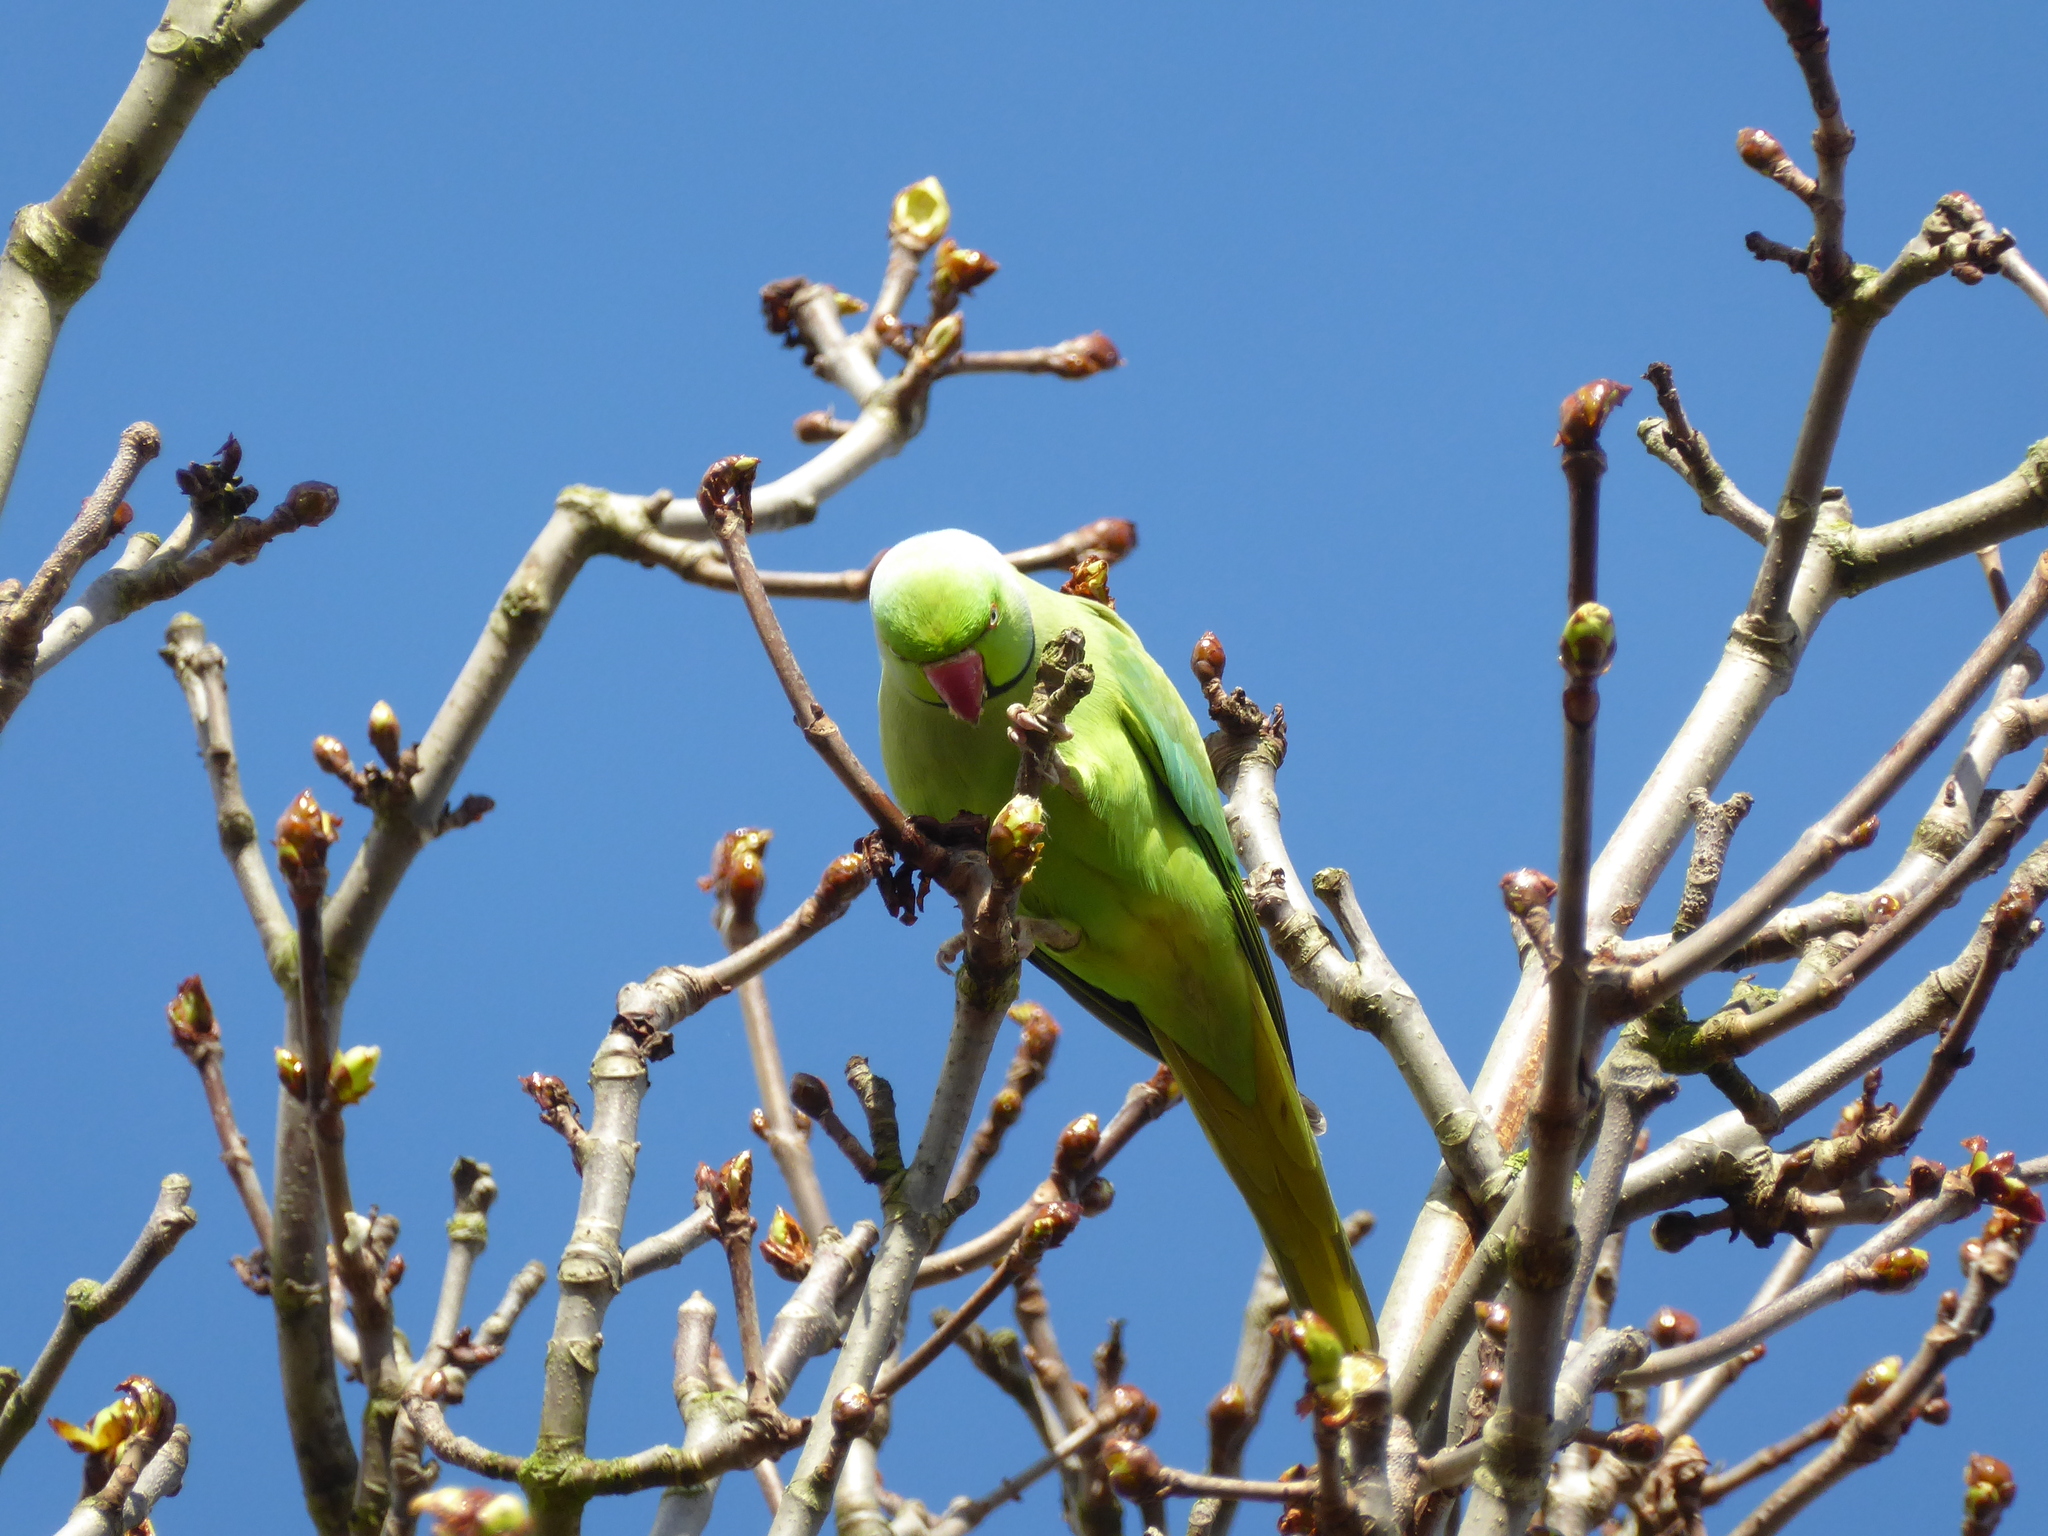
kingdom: Animalia
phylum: Chordata
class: Aves
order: Psittaciformes
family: Psittacidae
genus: Psittacula
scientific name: Psittacula krameri
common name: Rose-ringed parakeet
